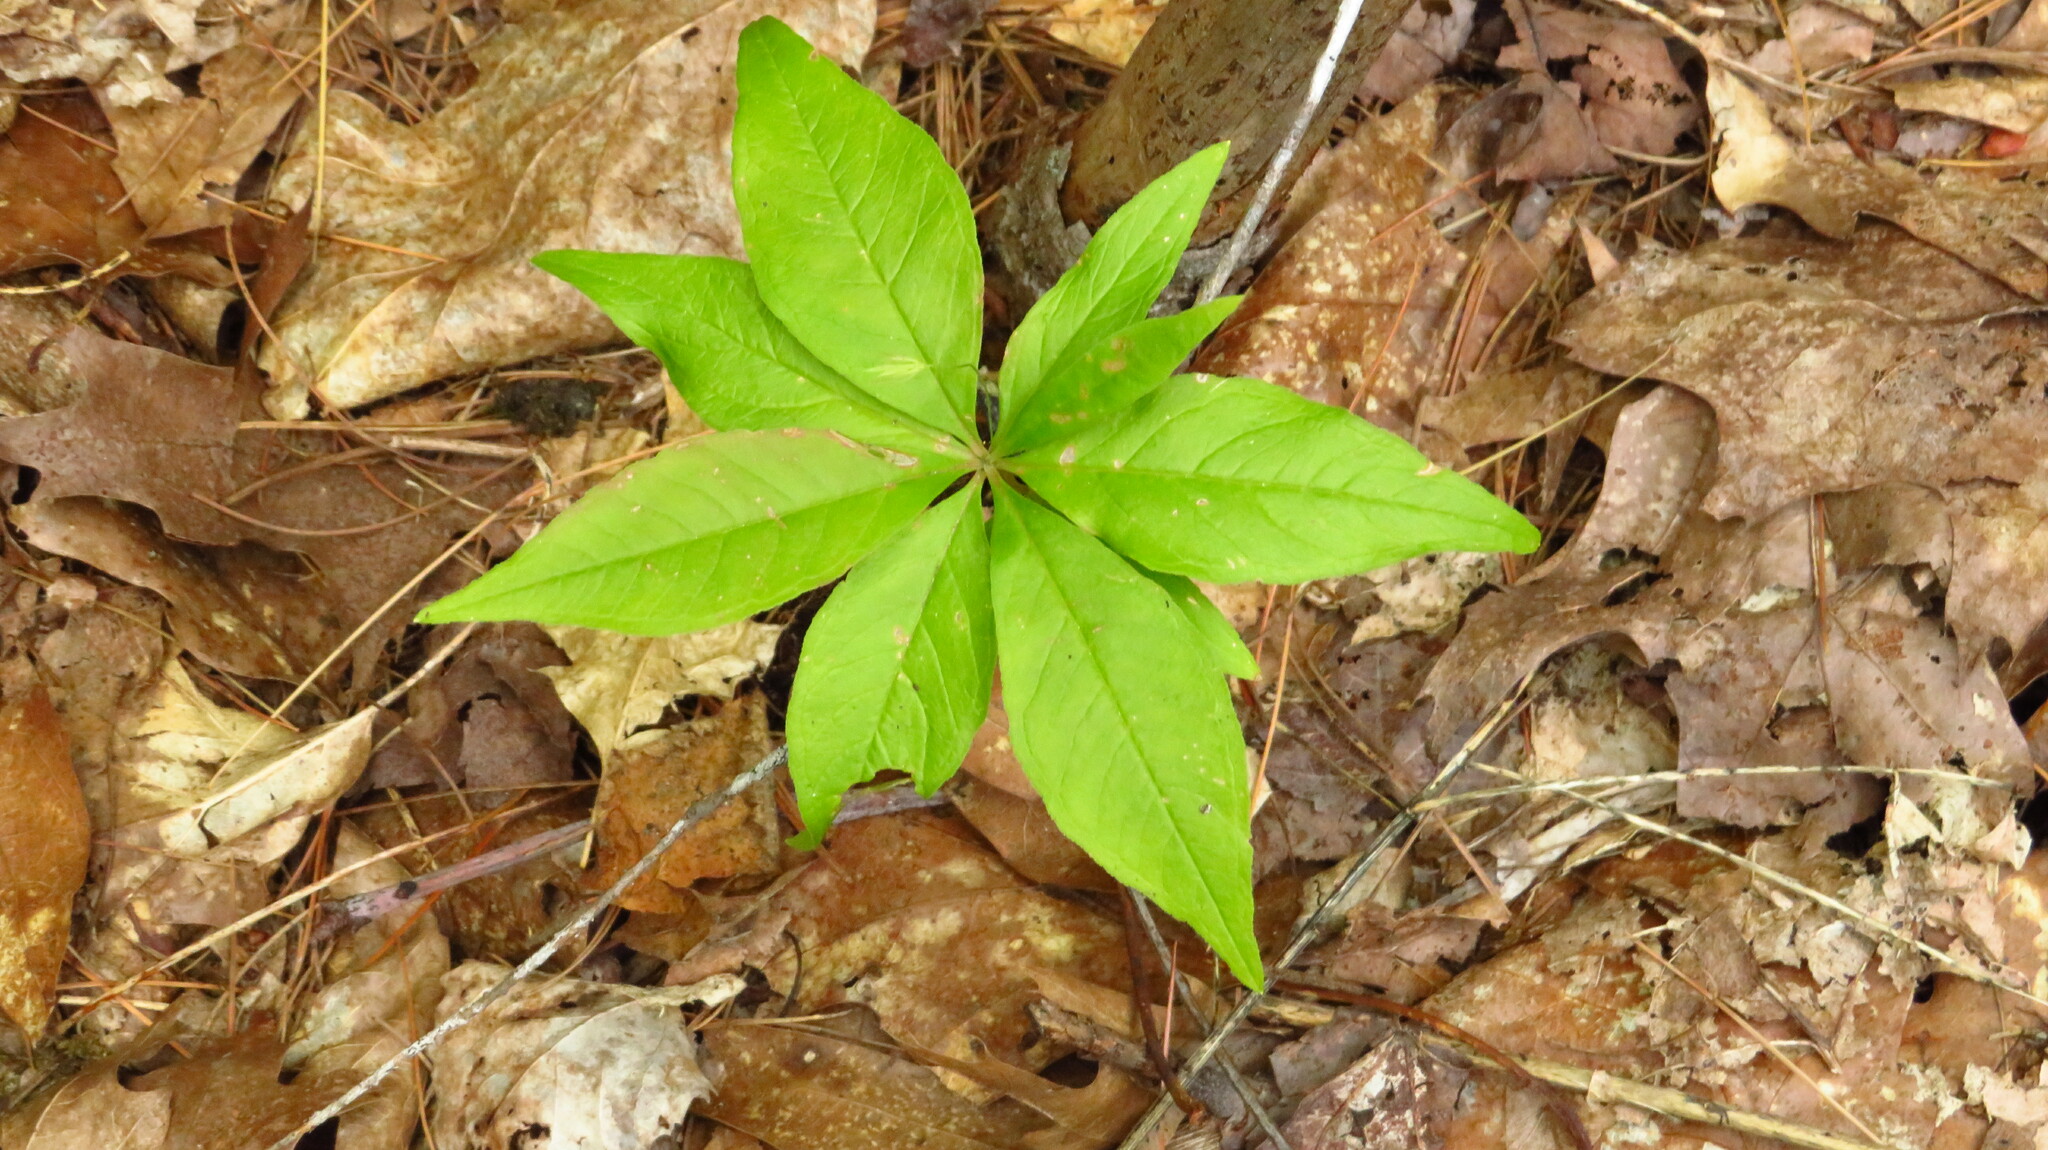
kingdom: Plantae
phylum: Tracheophyta
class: Magnoliopsida
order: Ericales
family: Primulaceae
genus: Lysimachia
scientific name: Lysimachia borealis
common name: American starflower
